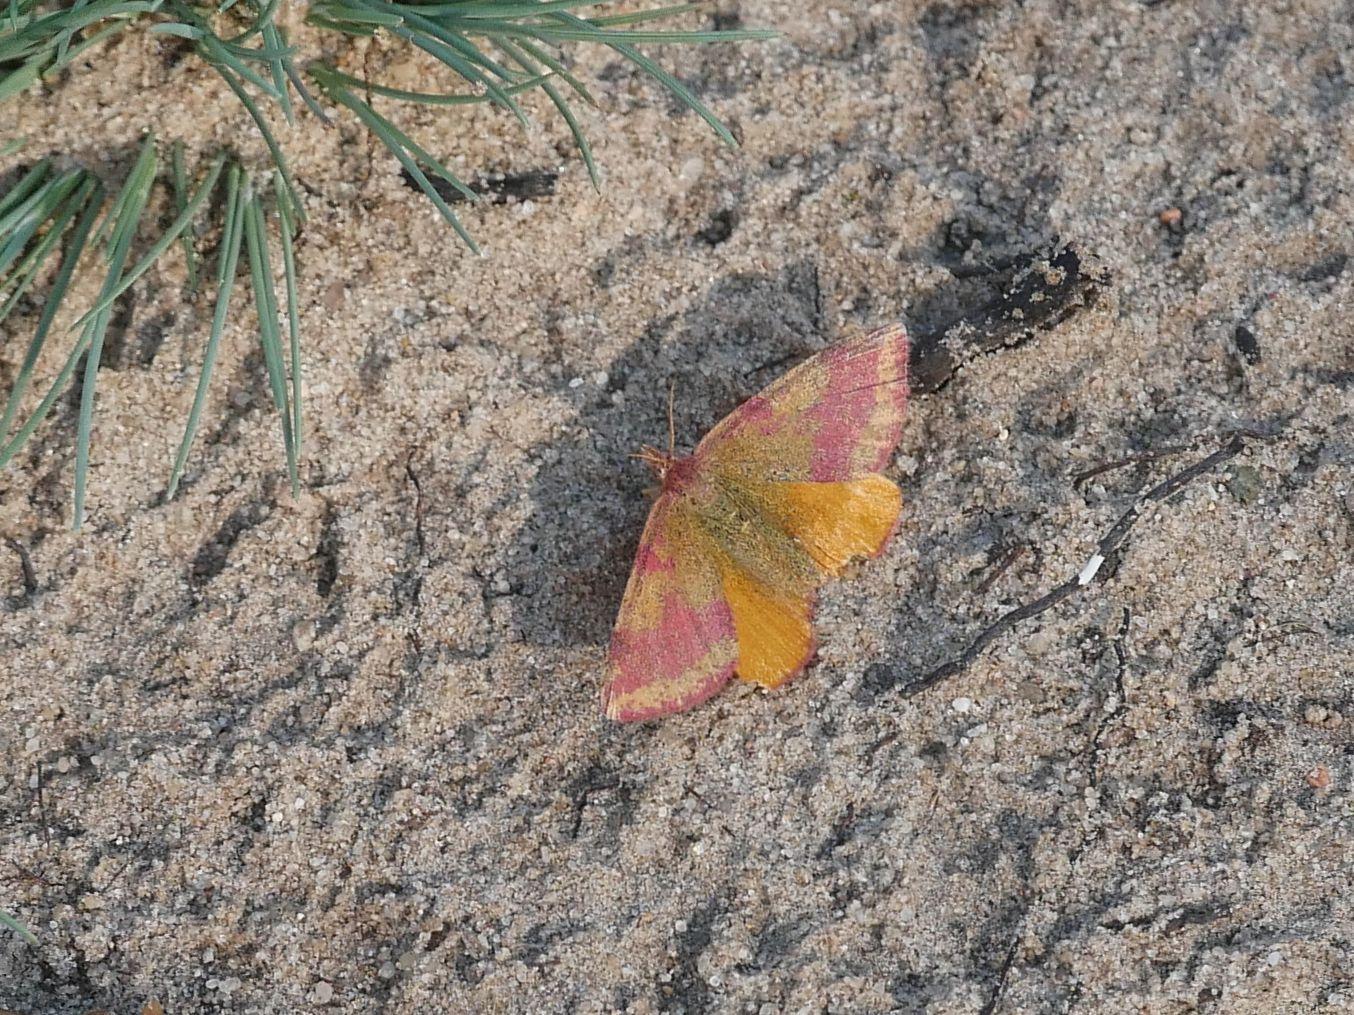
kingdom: Animalia
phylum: Arthropoda
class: Insecta
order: Lepidoptera
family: Geometridae
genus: Lythria
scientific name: Lythria cruentaria
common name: Purple-barred yellow
